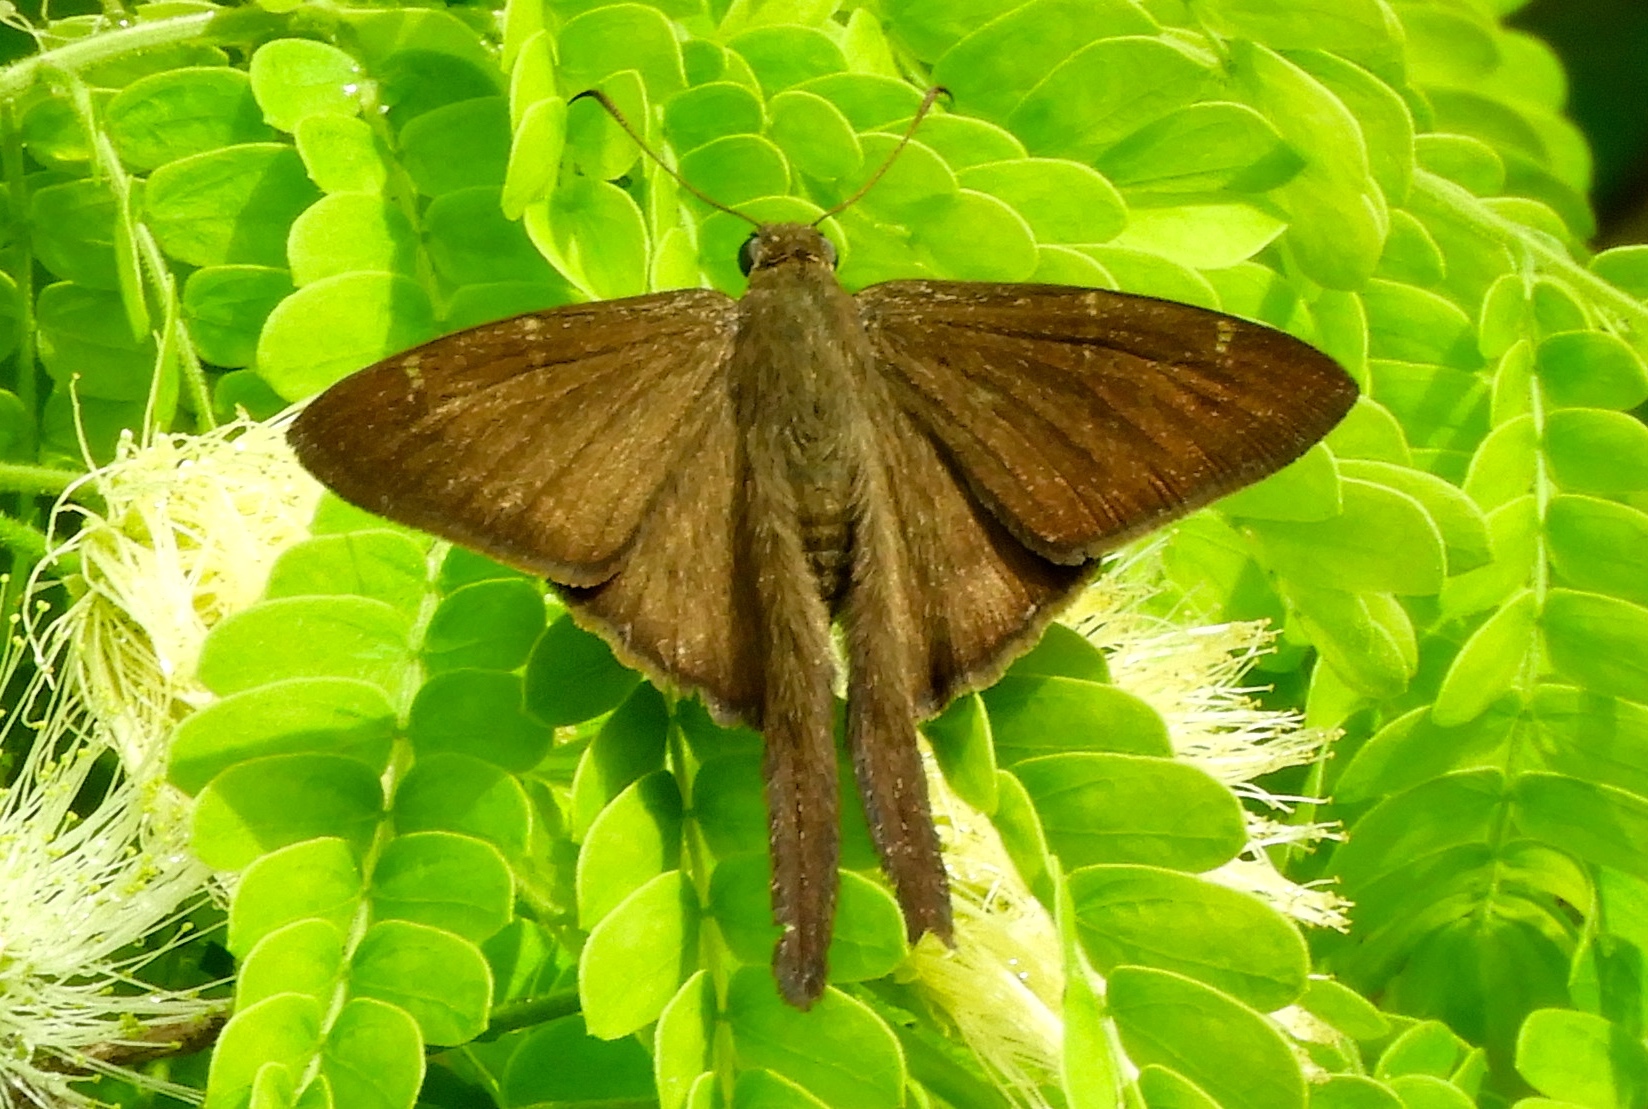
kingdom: Animalia
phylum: Arthropoda
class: Insecta
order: Lepidoptera
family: Hesperiidae
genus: Urbanus
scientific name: Urbanus procne
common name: Brown longtail
